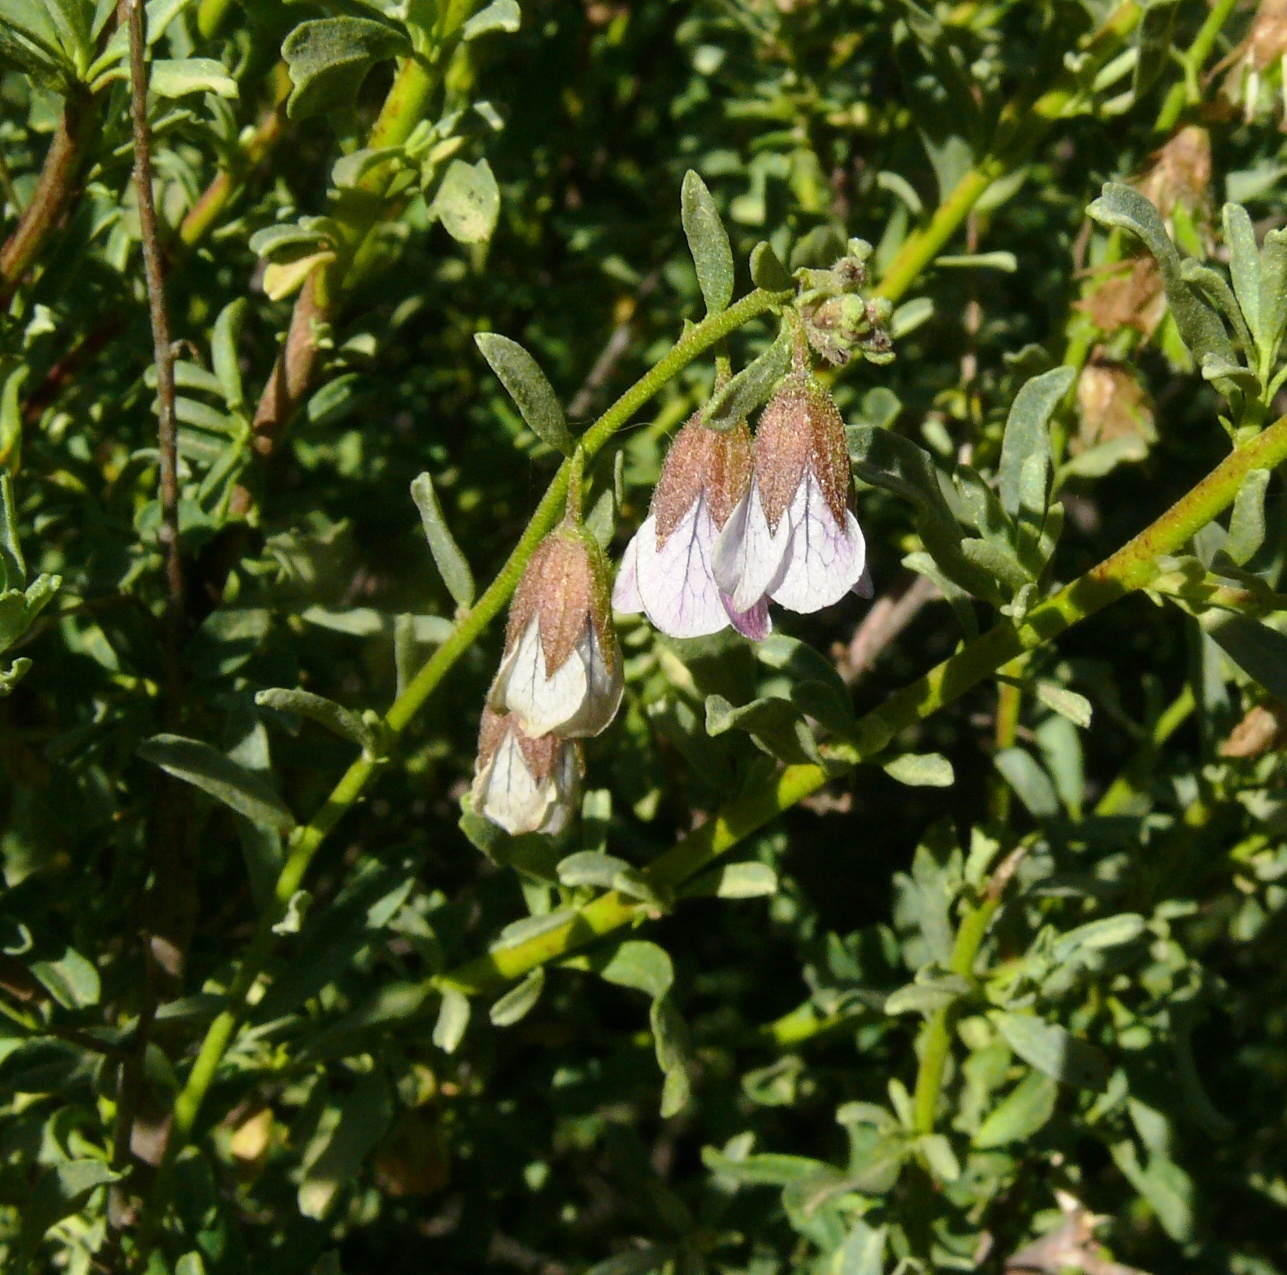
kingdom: Plantae
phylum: Tracheophyta
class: Magnoliopsida
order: Malvales
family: Malvaceae
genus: Hermannia
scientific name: Hermannia trifurca
